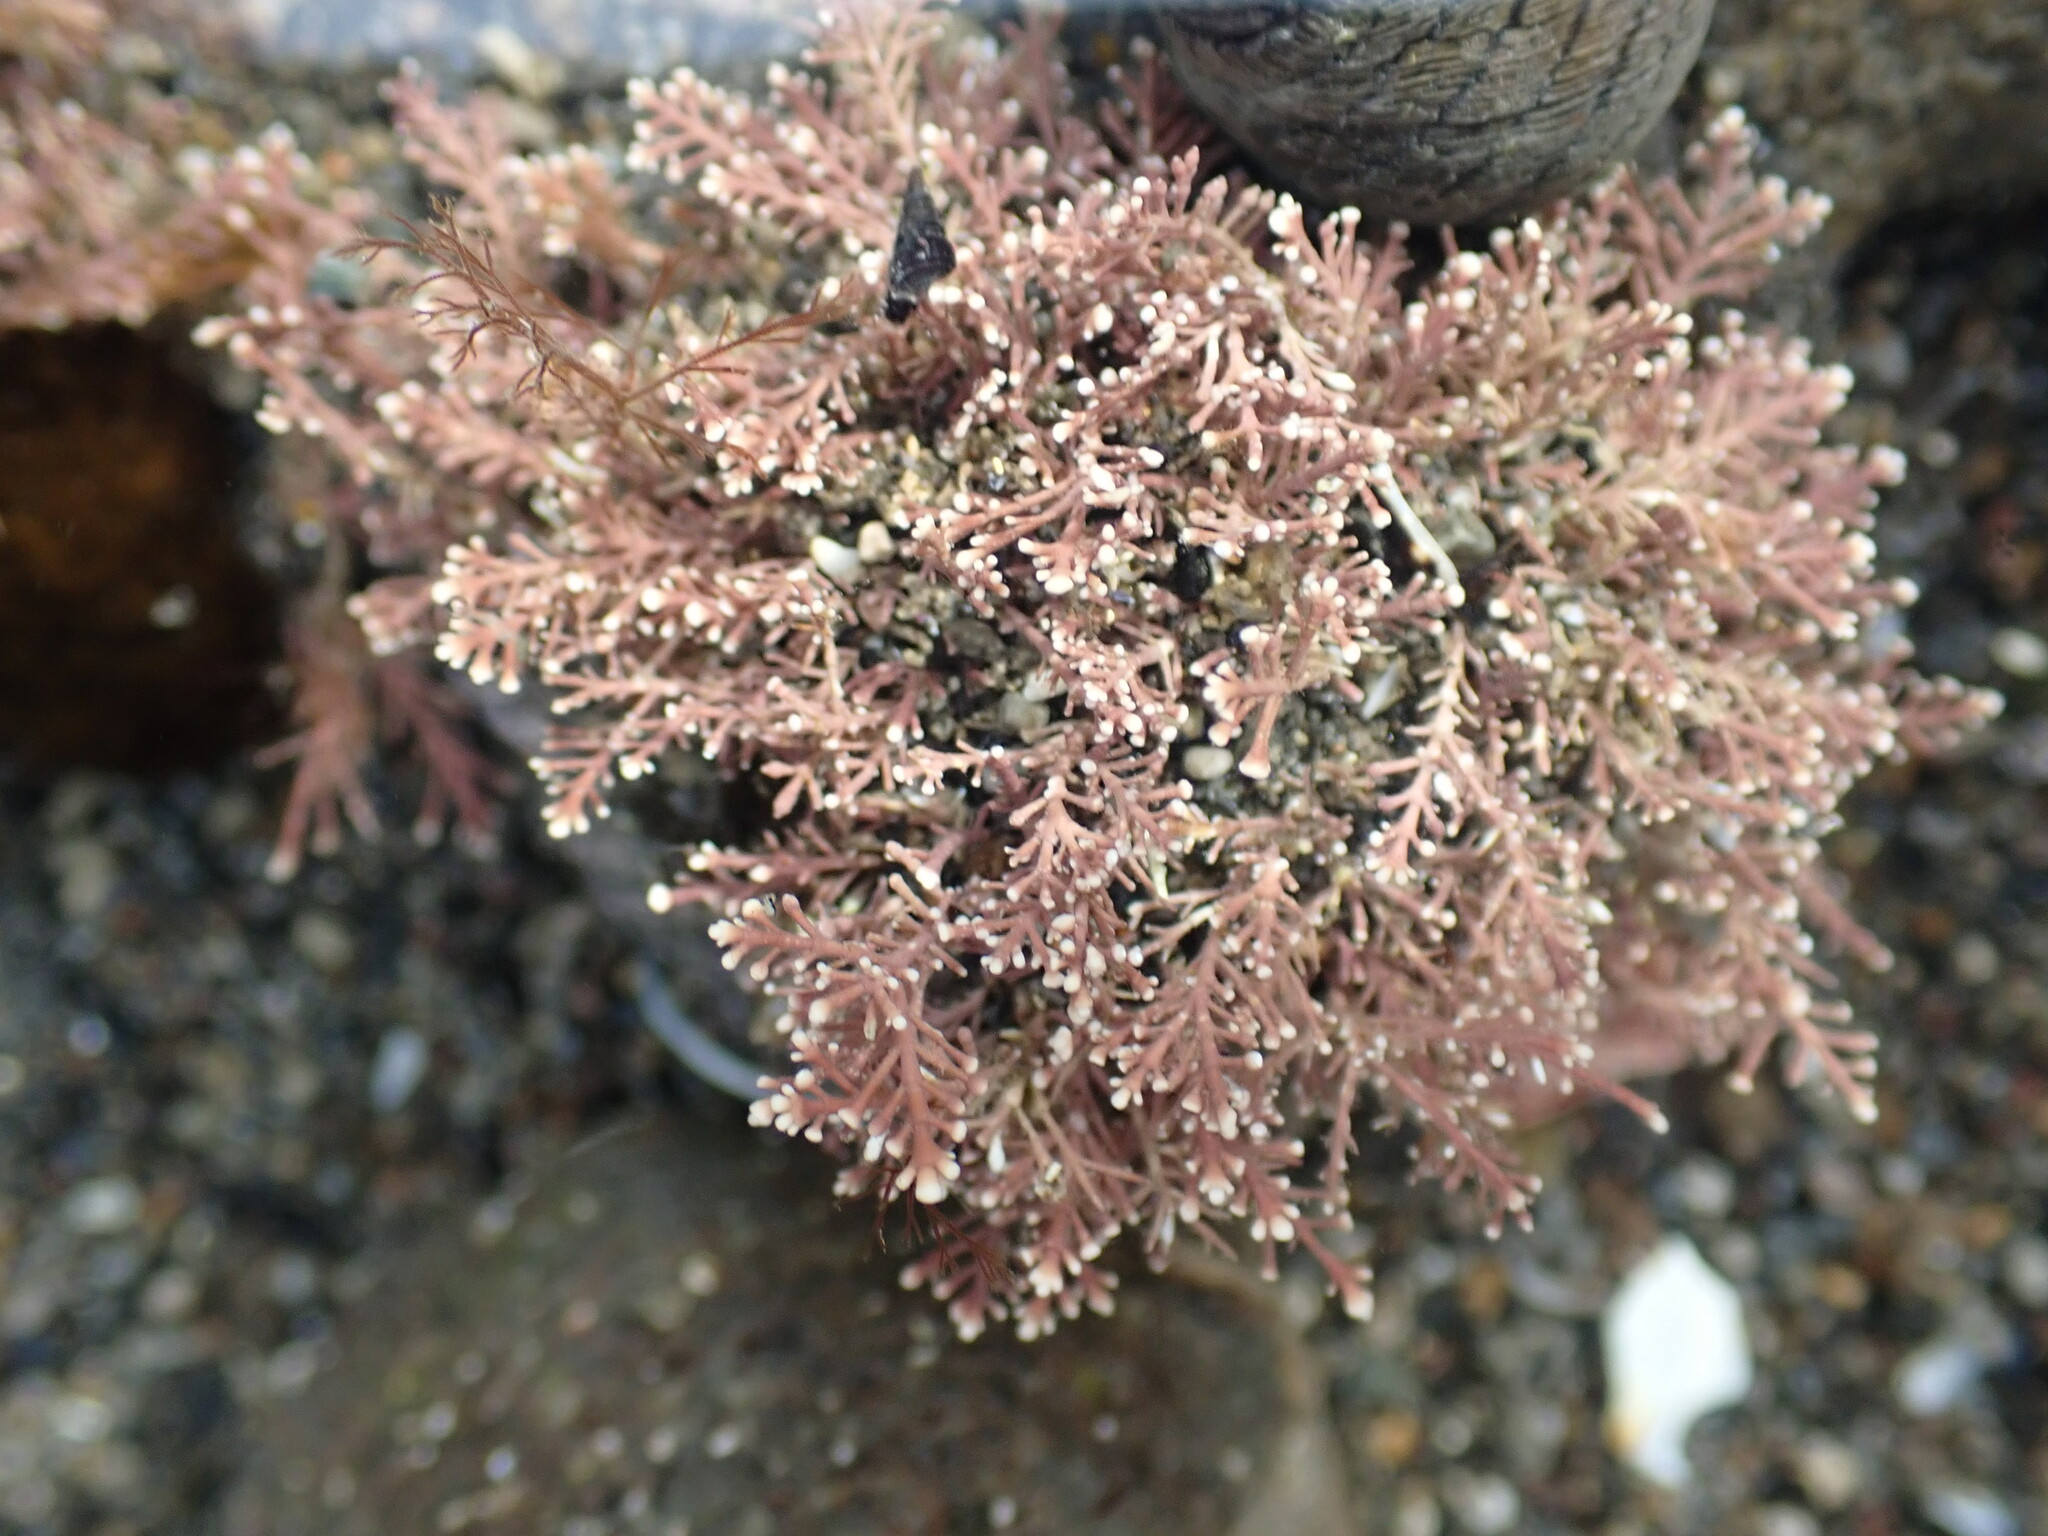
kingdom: Plantae
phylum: Rhodophyta
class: Florideophyceae
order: Corallinales
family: Corallinaceae
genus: Corallina
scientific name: Corallina officinalis
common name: Coral weed
